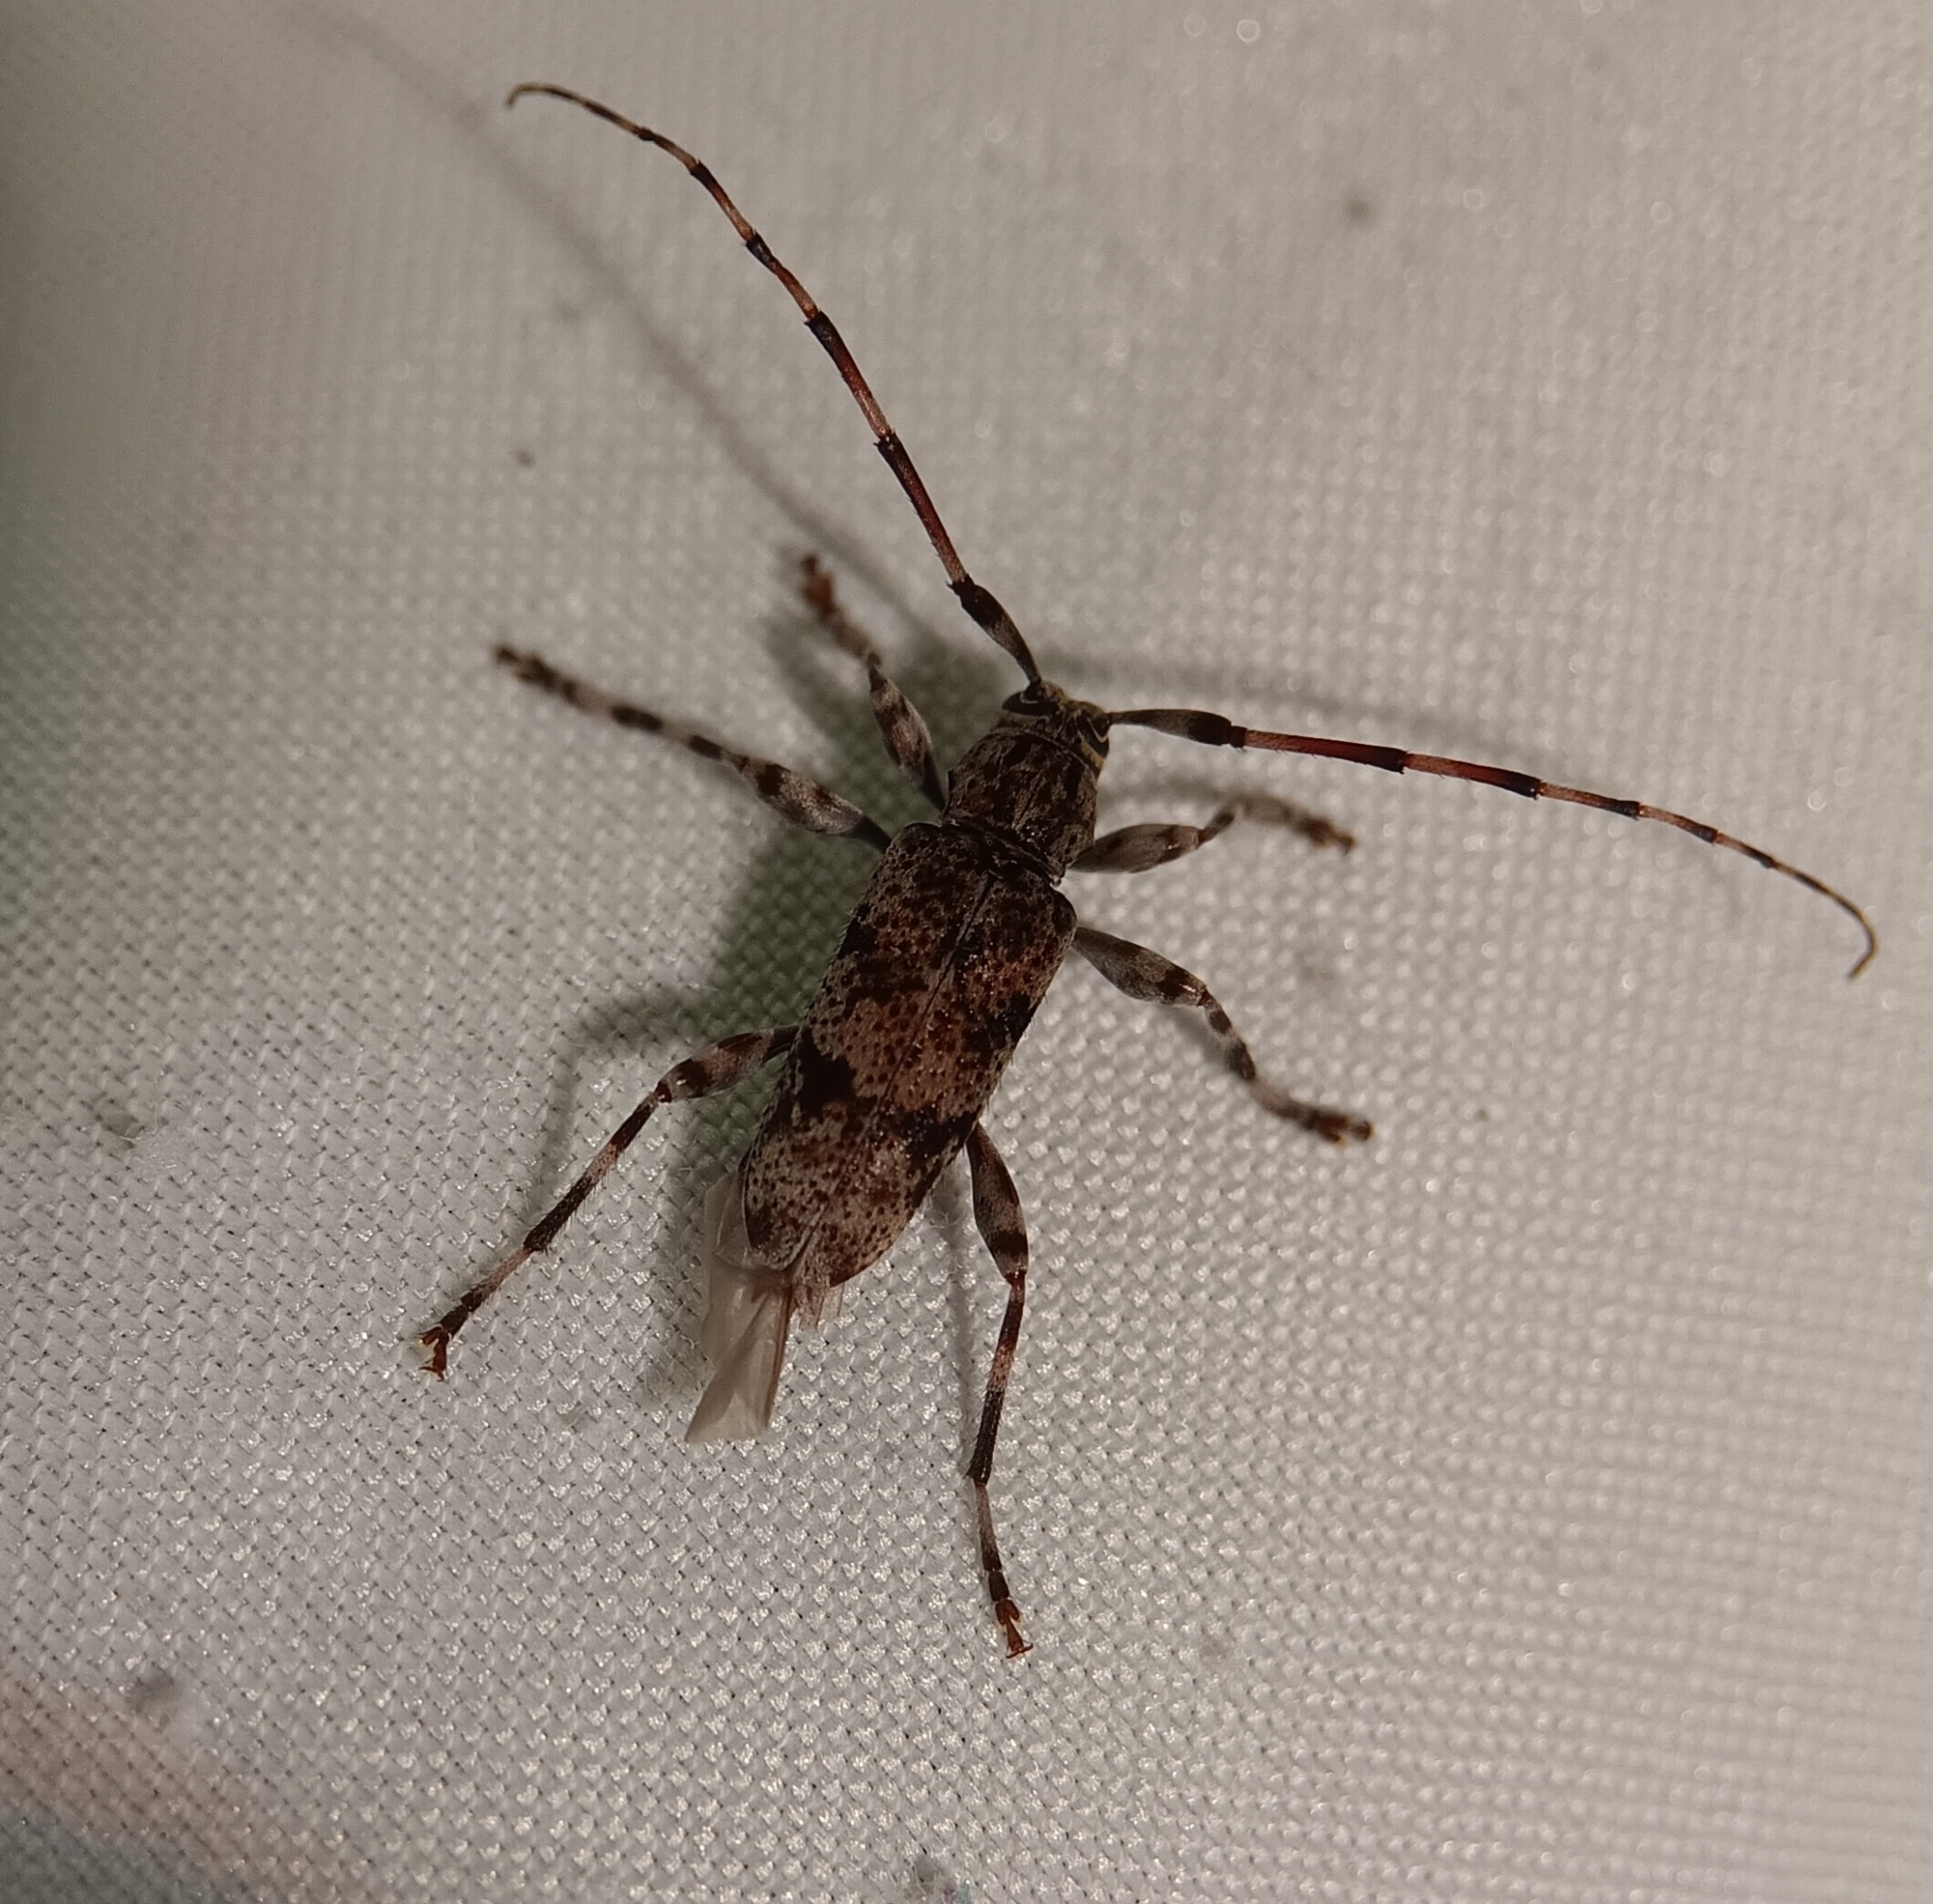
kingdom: Animalia
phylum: Arthropoda
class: Insecta
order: Coleoptera
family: Cerambycidae
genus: Graphisurus
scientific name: Graphisurus fasciatus
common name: Banded graphisurus
